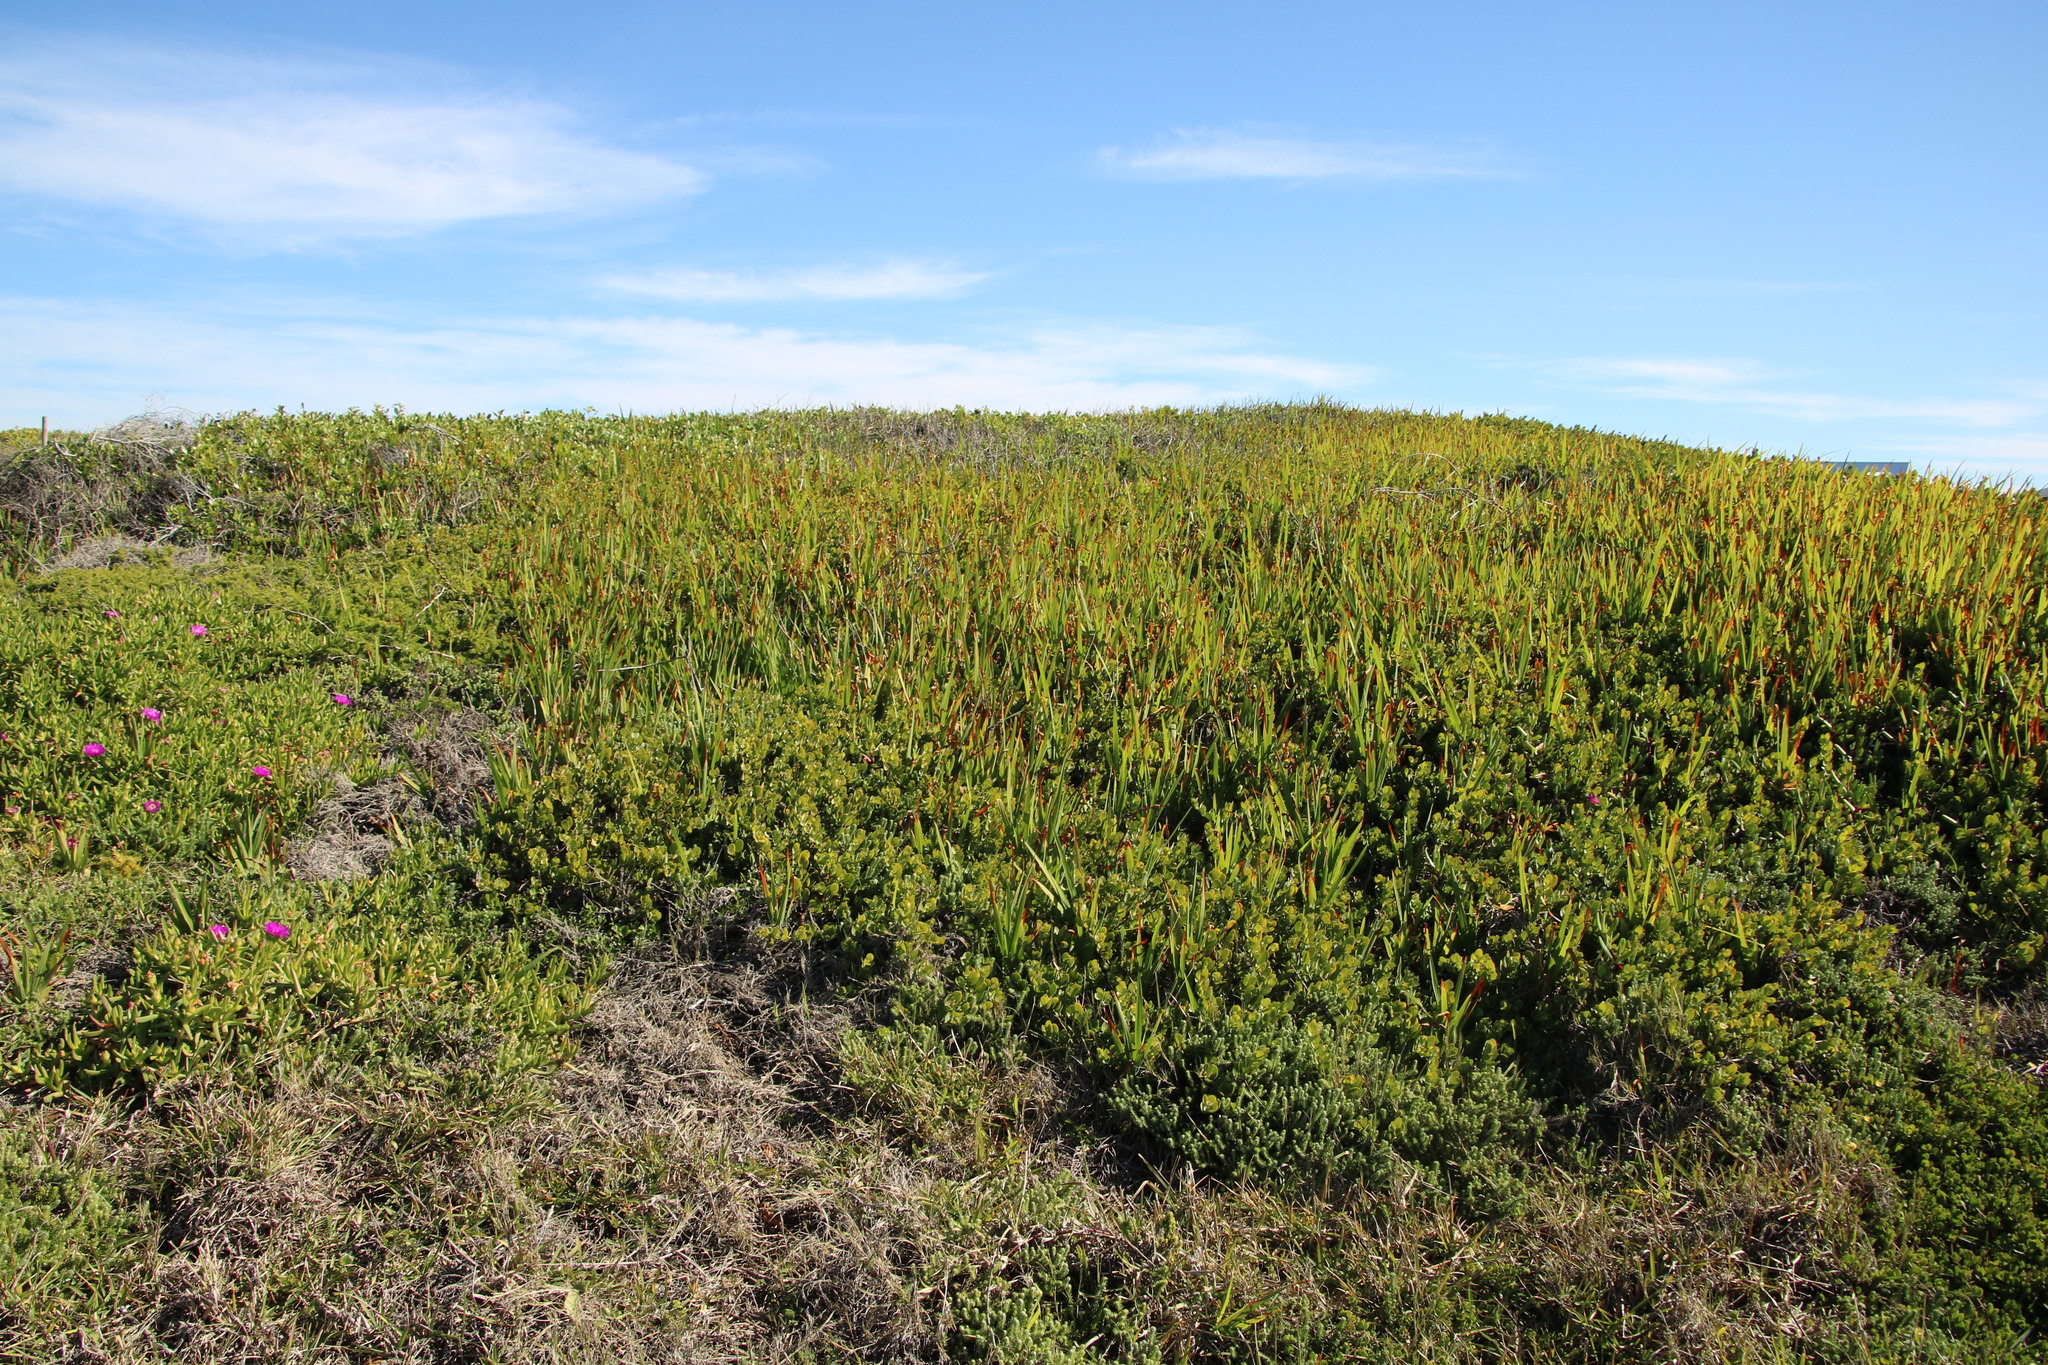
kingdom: Plantae
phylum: Tracheophyta
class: Liliopsida
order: Asparagales
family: Iridaceae
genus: Chasmanthe
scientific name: Chasmanthe aethiopica
